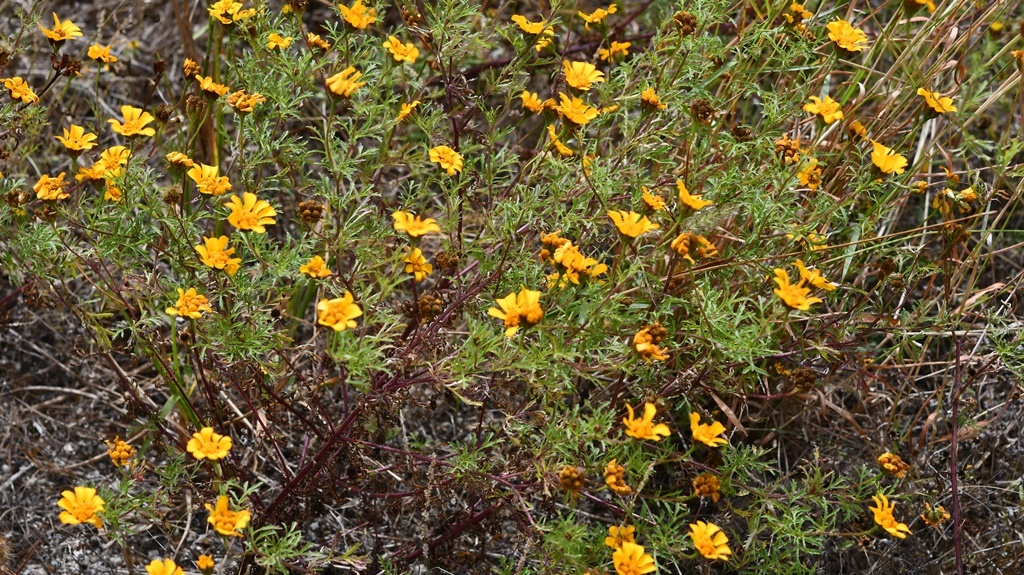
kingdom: Plantae
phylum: Tracheophyta
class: Magnoliopsida
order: Asterales
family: Asteraceae
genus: Dyssodia
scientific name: Dyssodia decipiens
